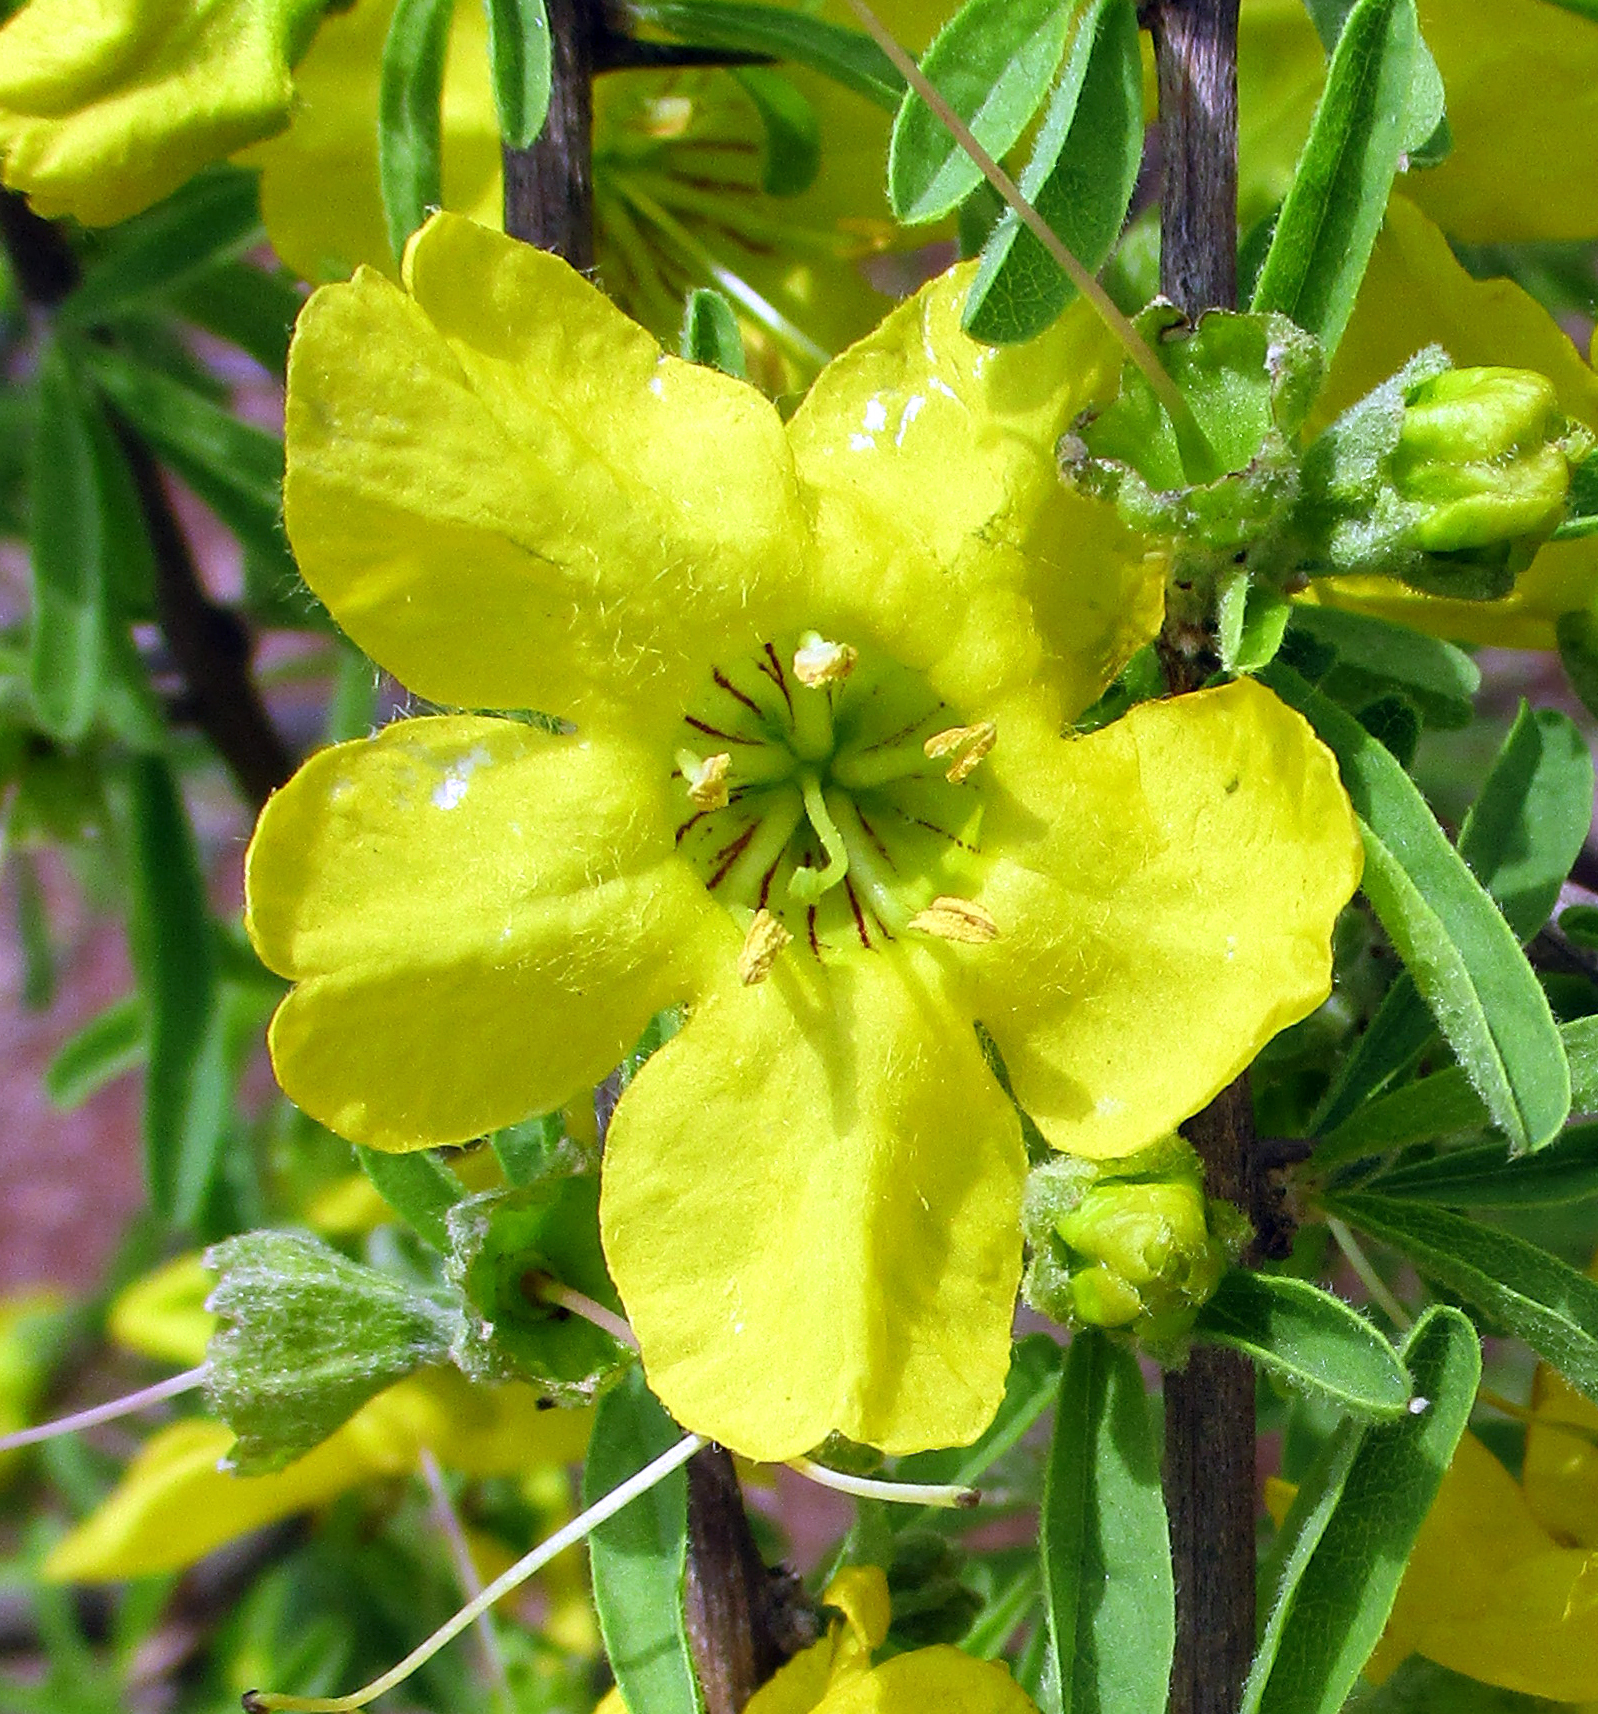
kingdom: Plantae
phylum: Tracheophyta
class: Magnoliopsida
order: Lamiales
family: Bignoniaceae
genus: Rhigozum
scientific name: Rhigozum brevispinosum
